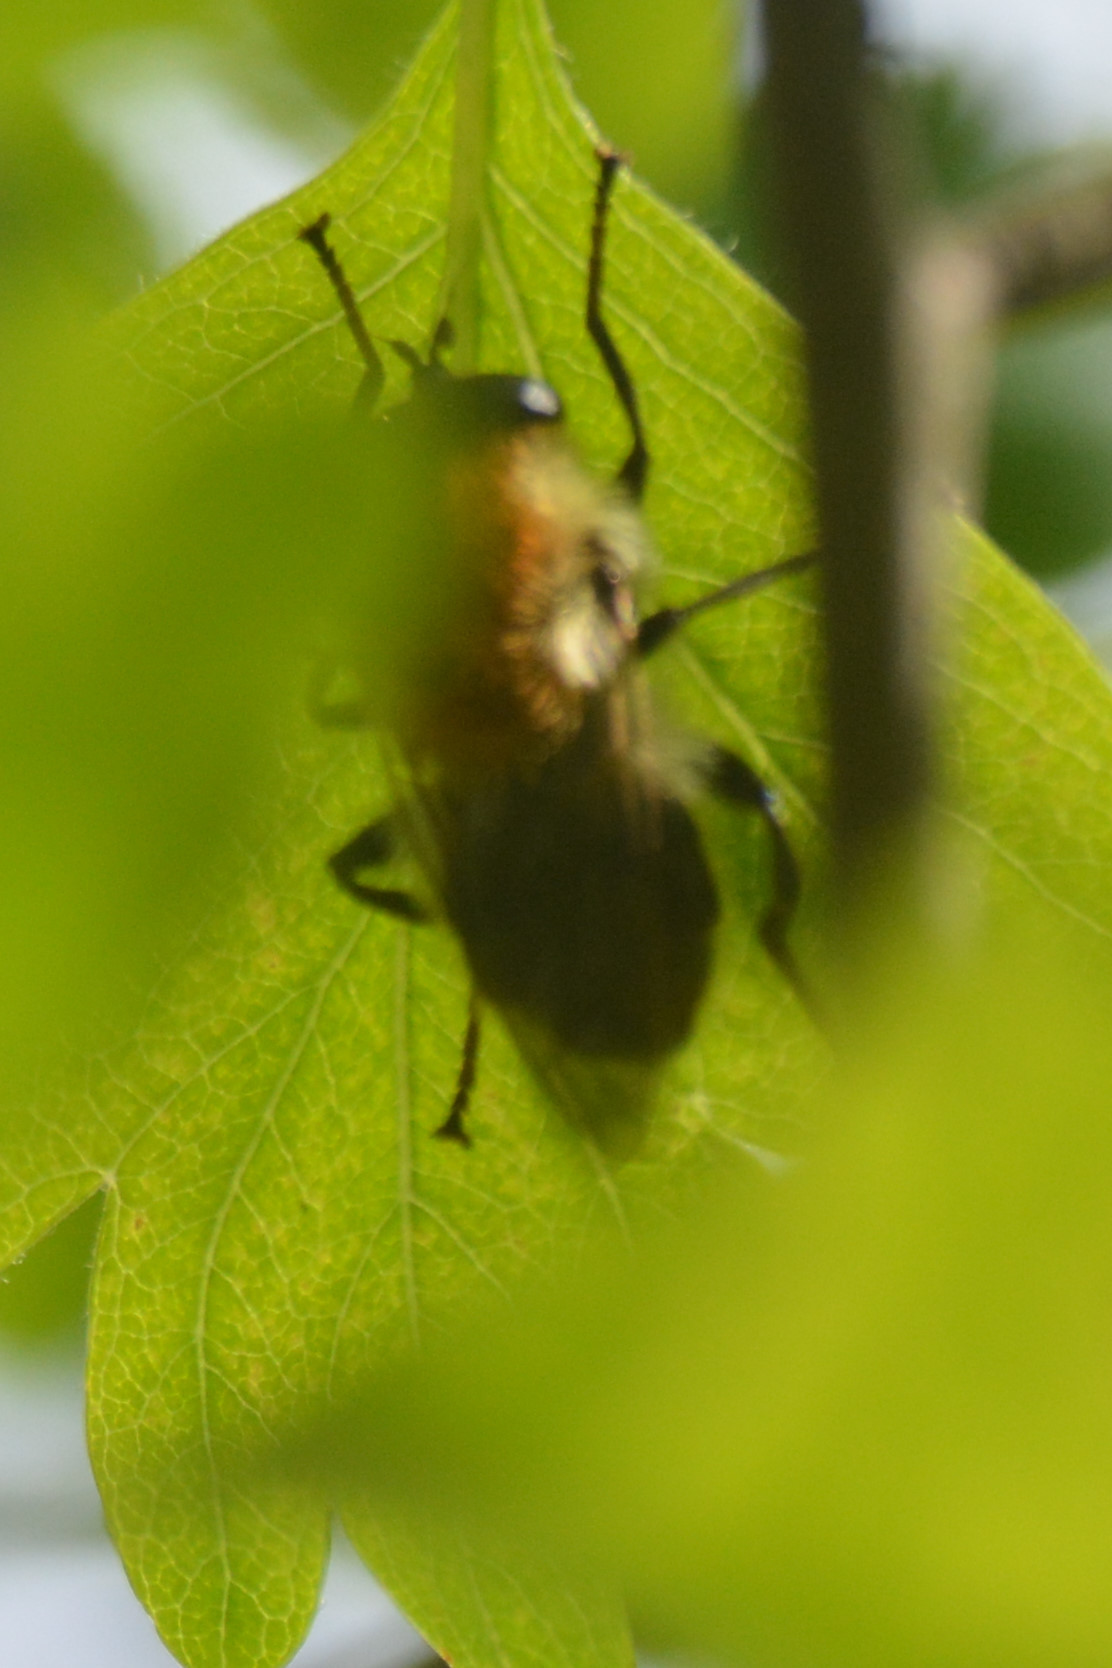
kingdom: Animalia
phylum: Arthropoda
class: Insecta
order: Diptera
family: Syrphidae
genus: Criorhina
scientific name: Criorhina floccosa
